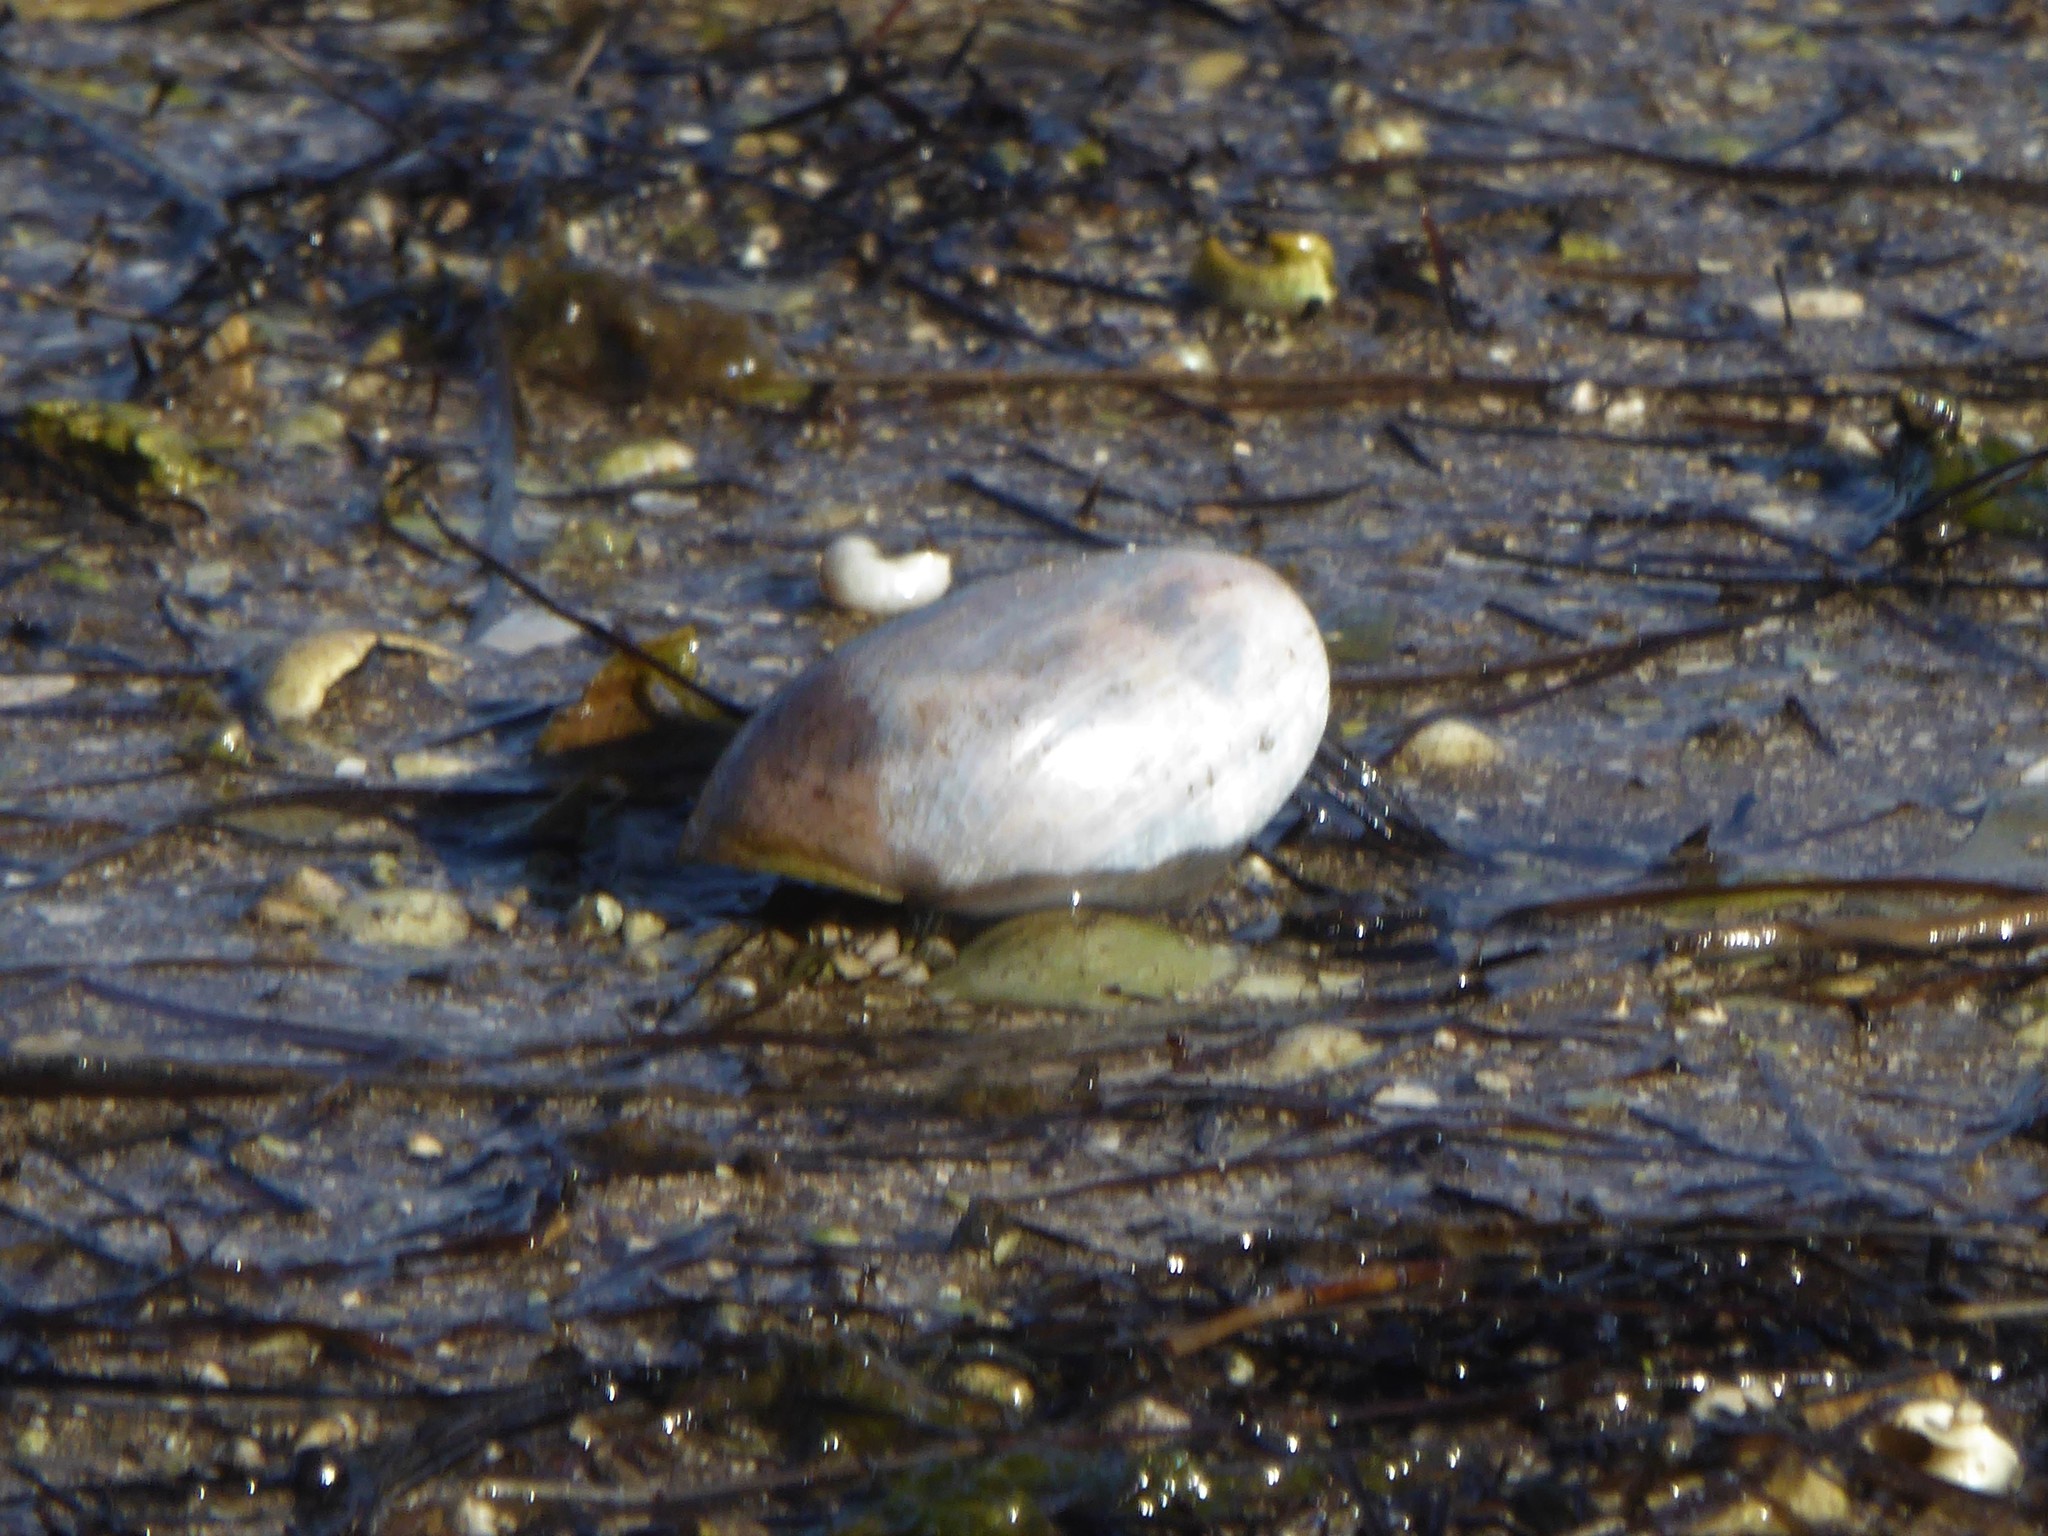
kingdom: Animalia
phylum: Mollusca
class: Gastropoda
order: Cephalaspidea
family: Bullidae
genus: Bulla
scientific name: Bulla quoyii
